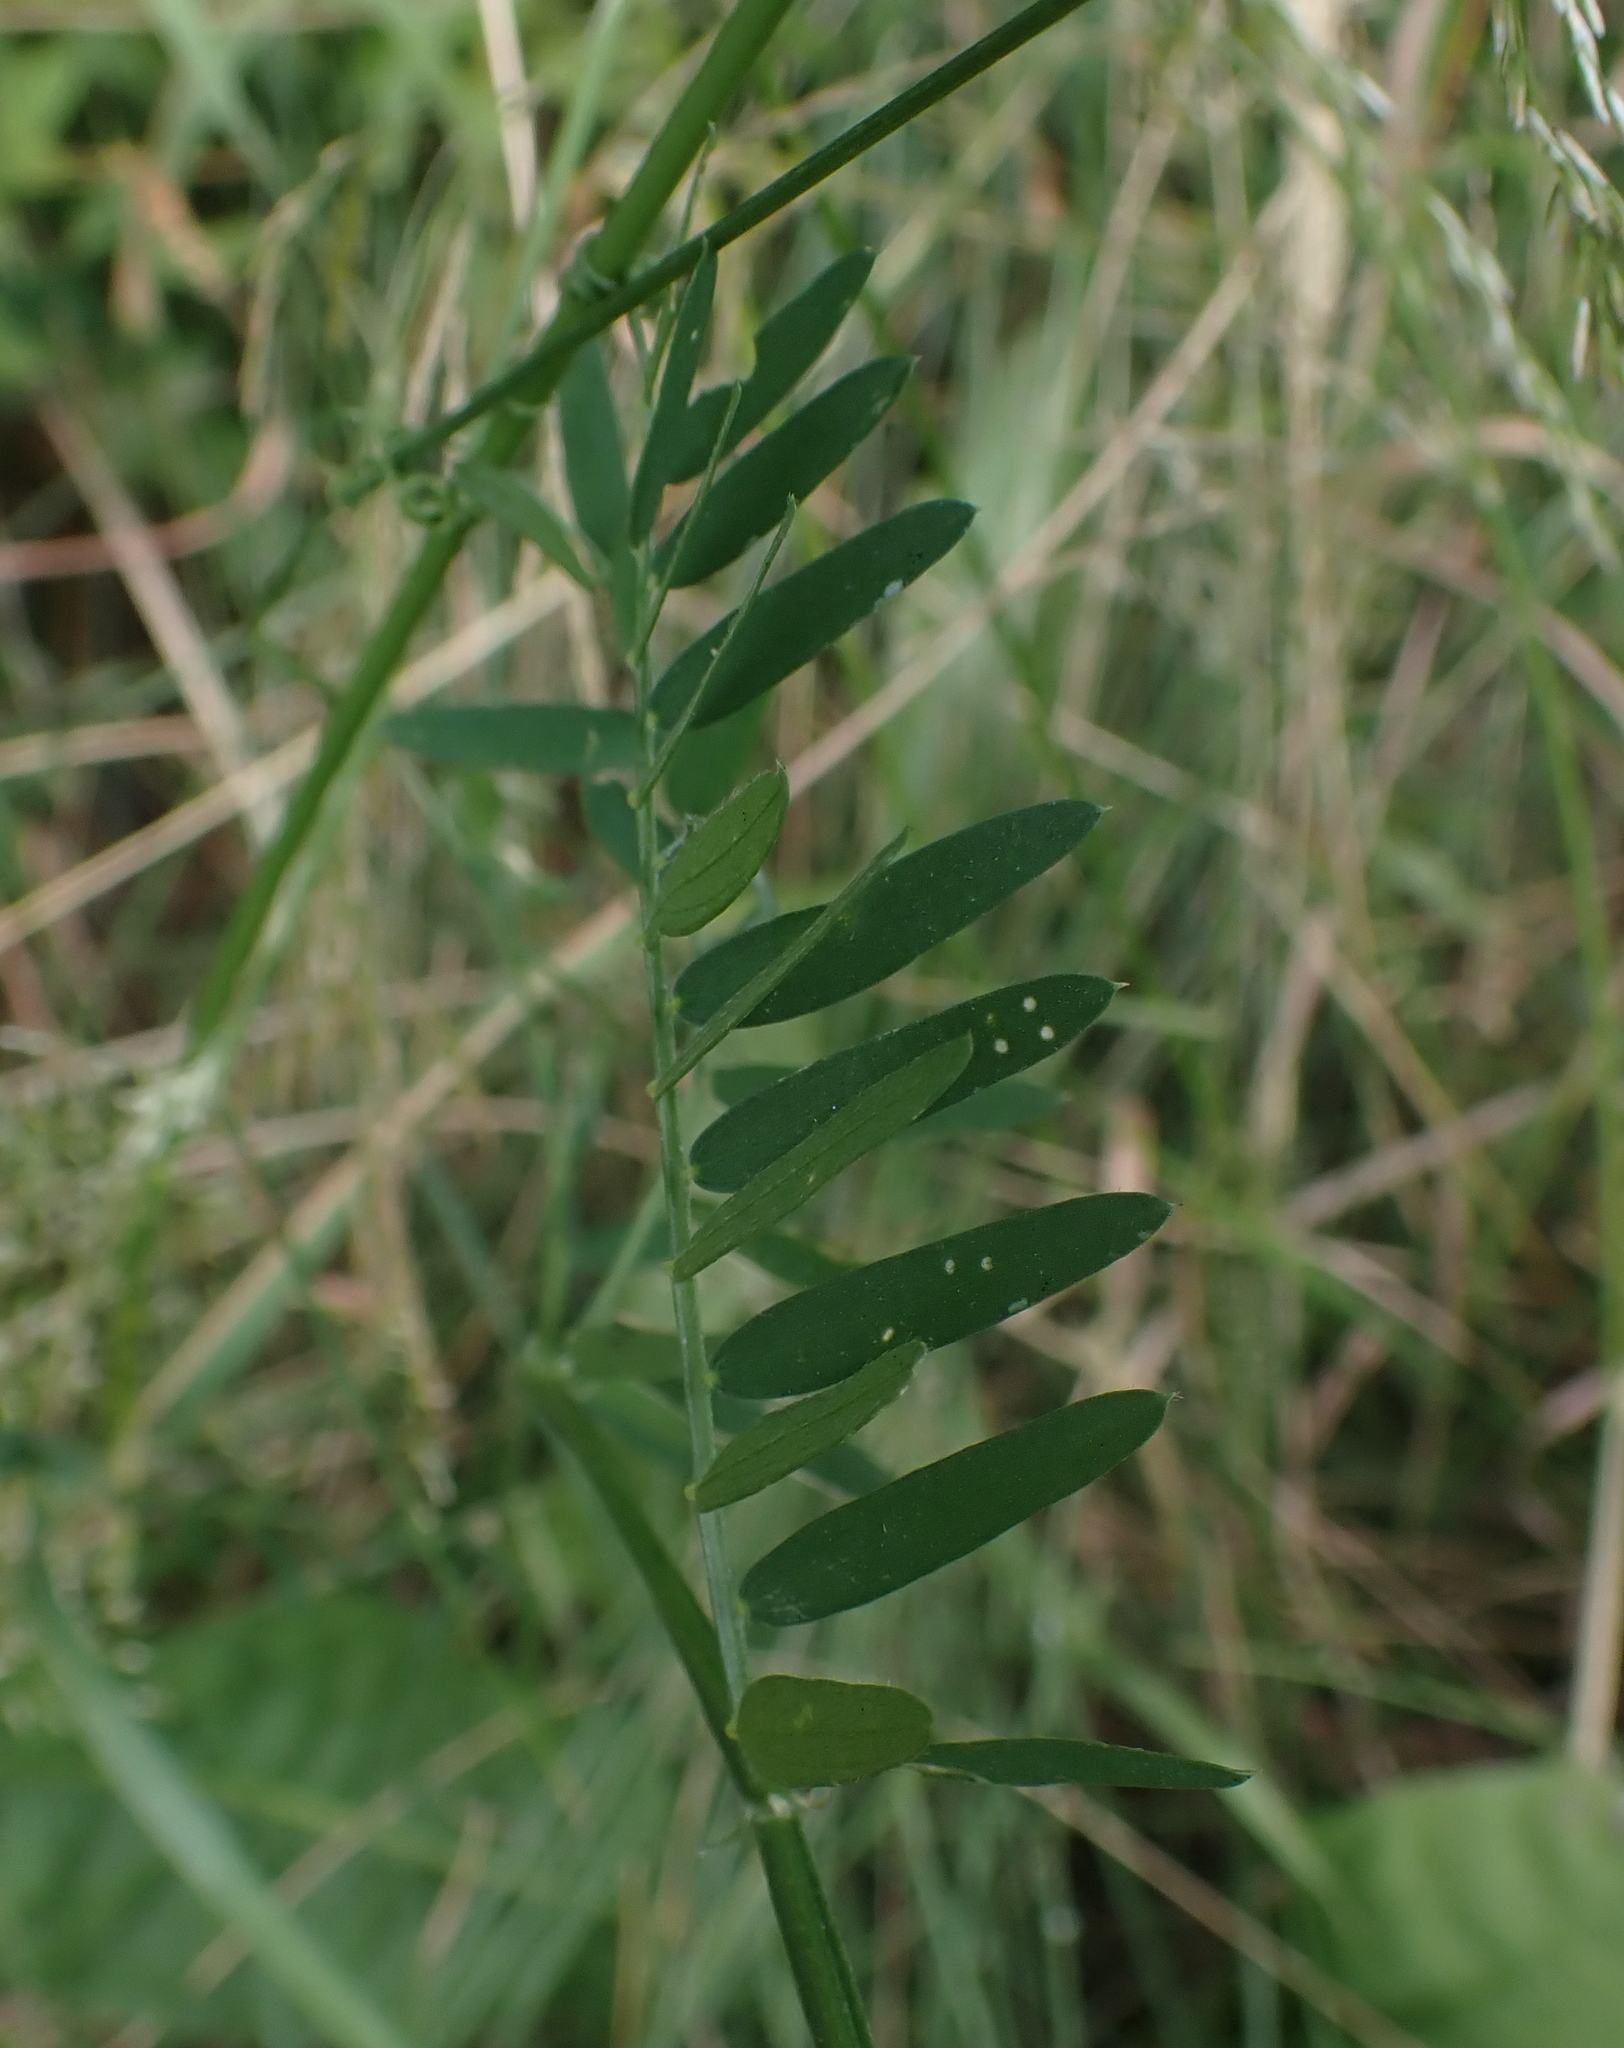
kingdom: Plantae
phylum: Tracheophyta
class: Magnoliopsida
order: Fabales
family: Fabaceae
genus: Vicia
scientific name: Vicia cracca
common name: Bird vetch
